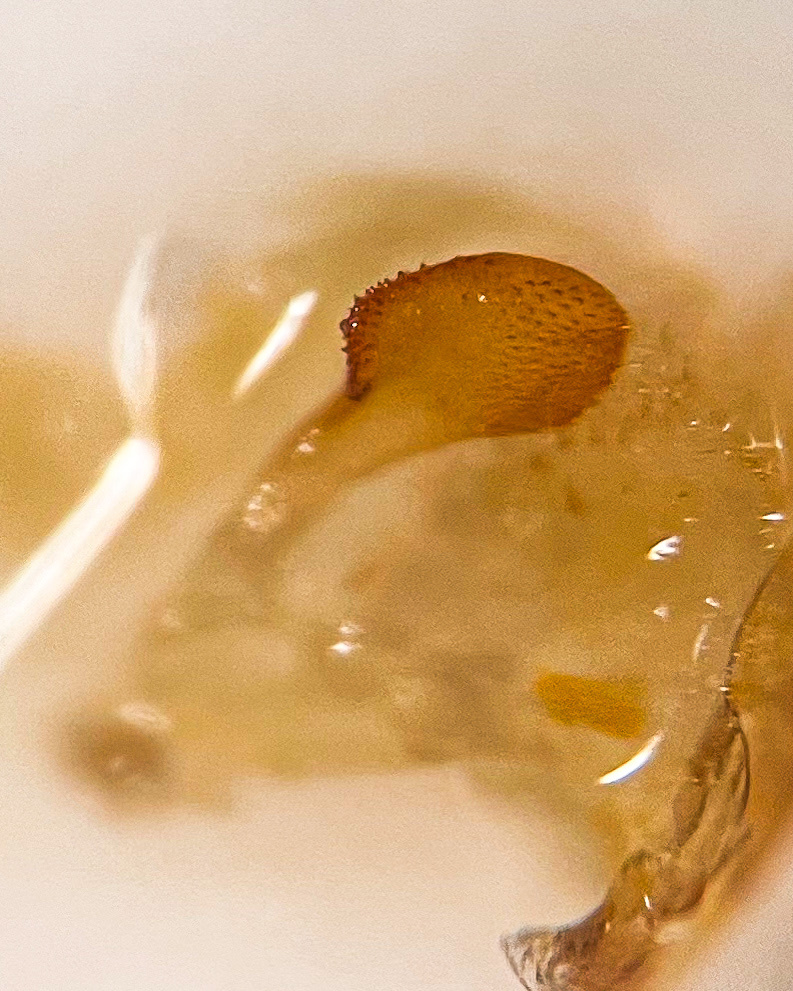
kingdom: Animalia
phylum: Arthropoda
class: Insecta
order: Hemiptera
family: Cicadellidae
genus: Iassus
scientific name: Iassus mirabilis
